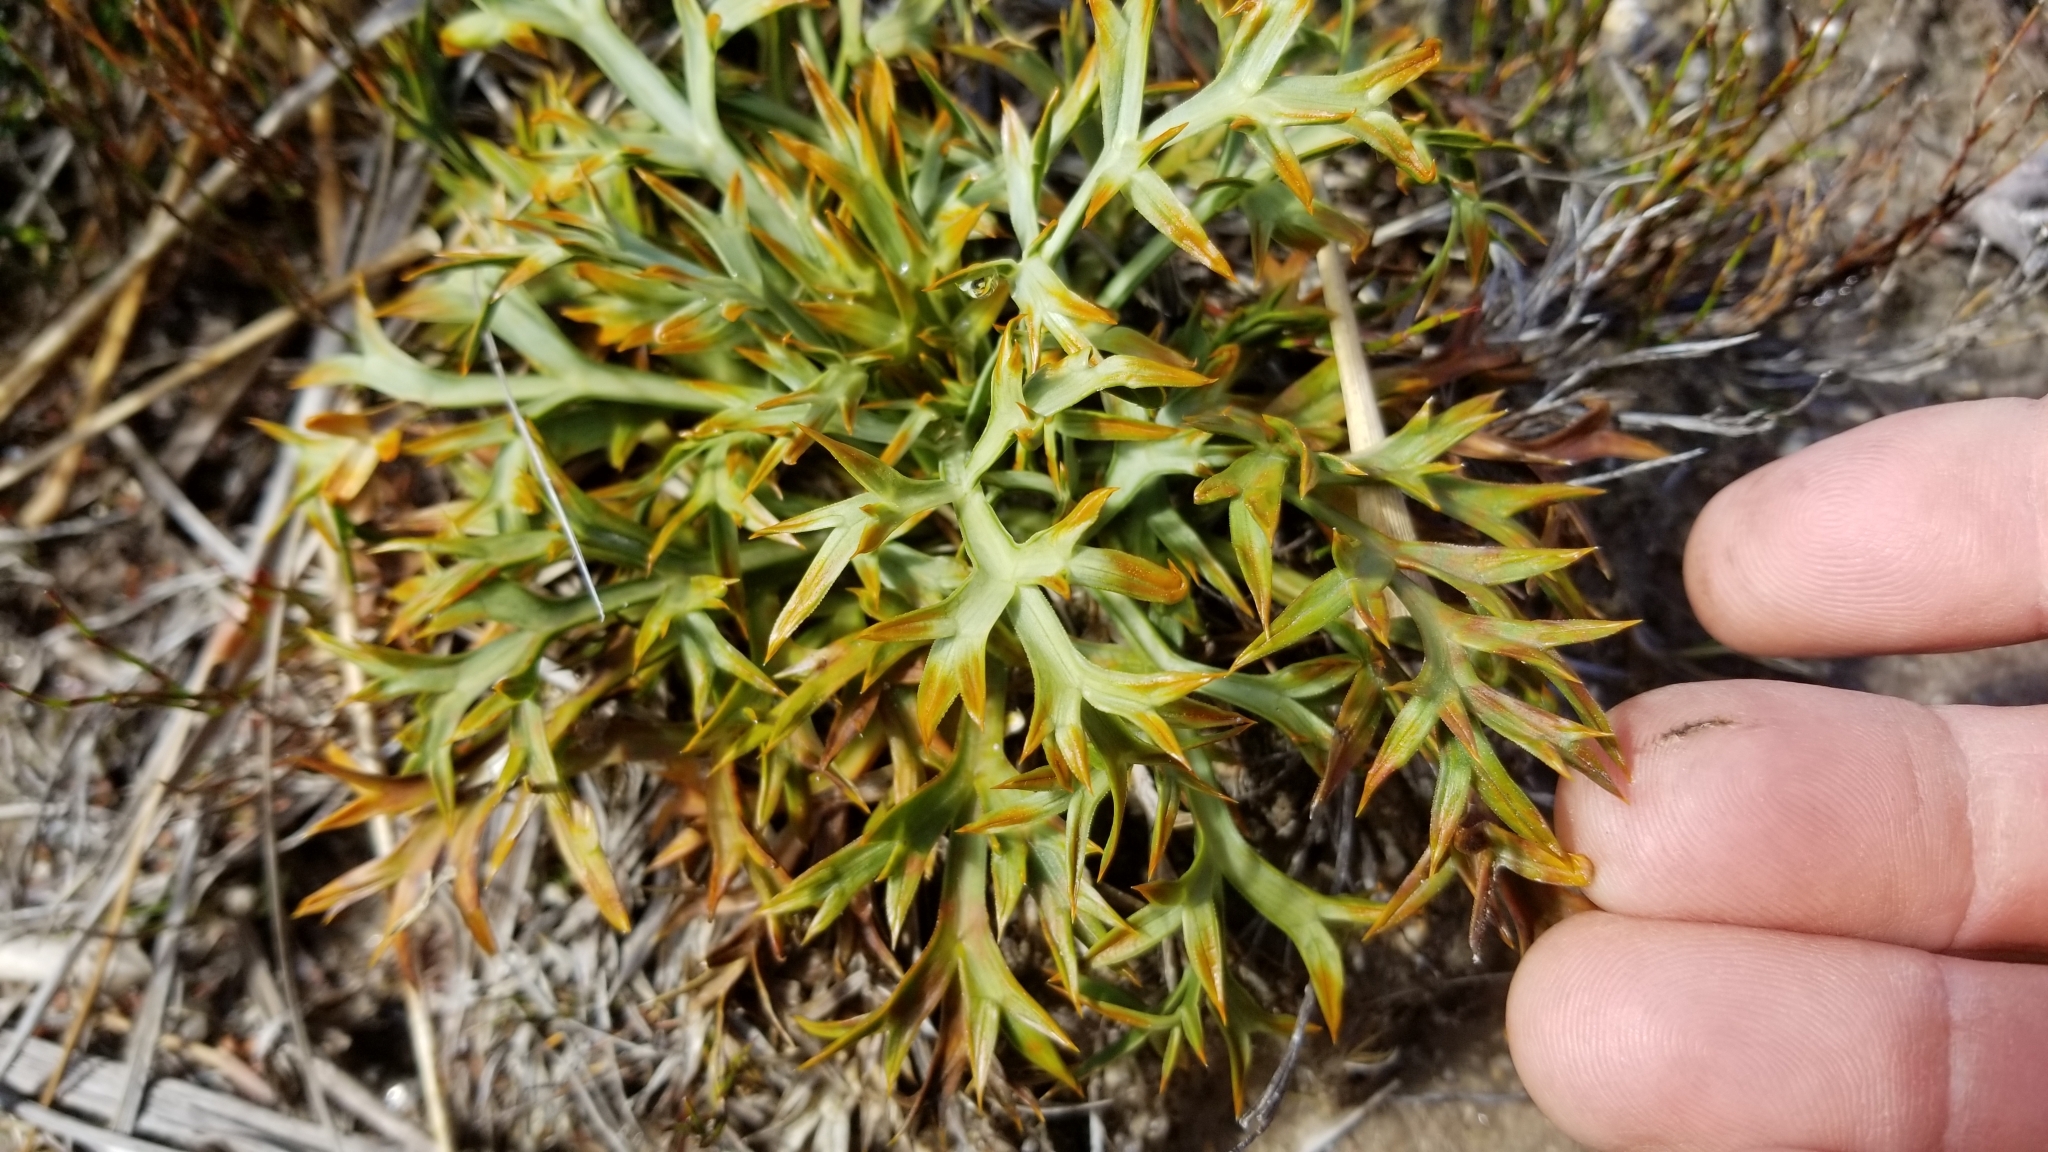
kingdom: Plantae
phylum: Tracheophyta
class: Magnoliopsida
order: Apiales
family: Apiaceae
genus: Aciphylla
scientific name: Aciphylla hookeri
